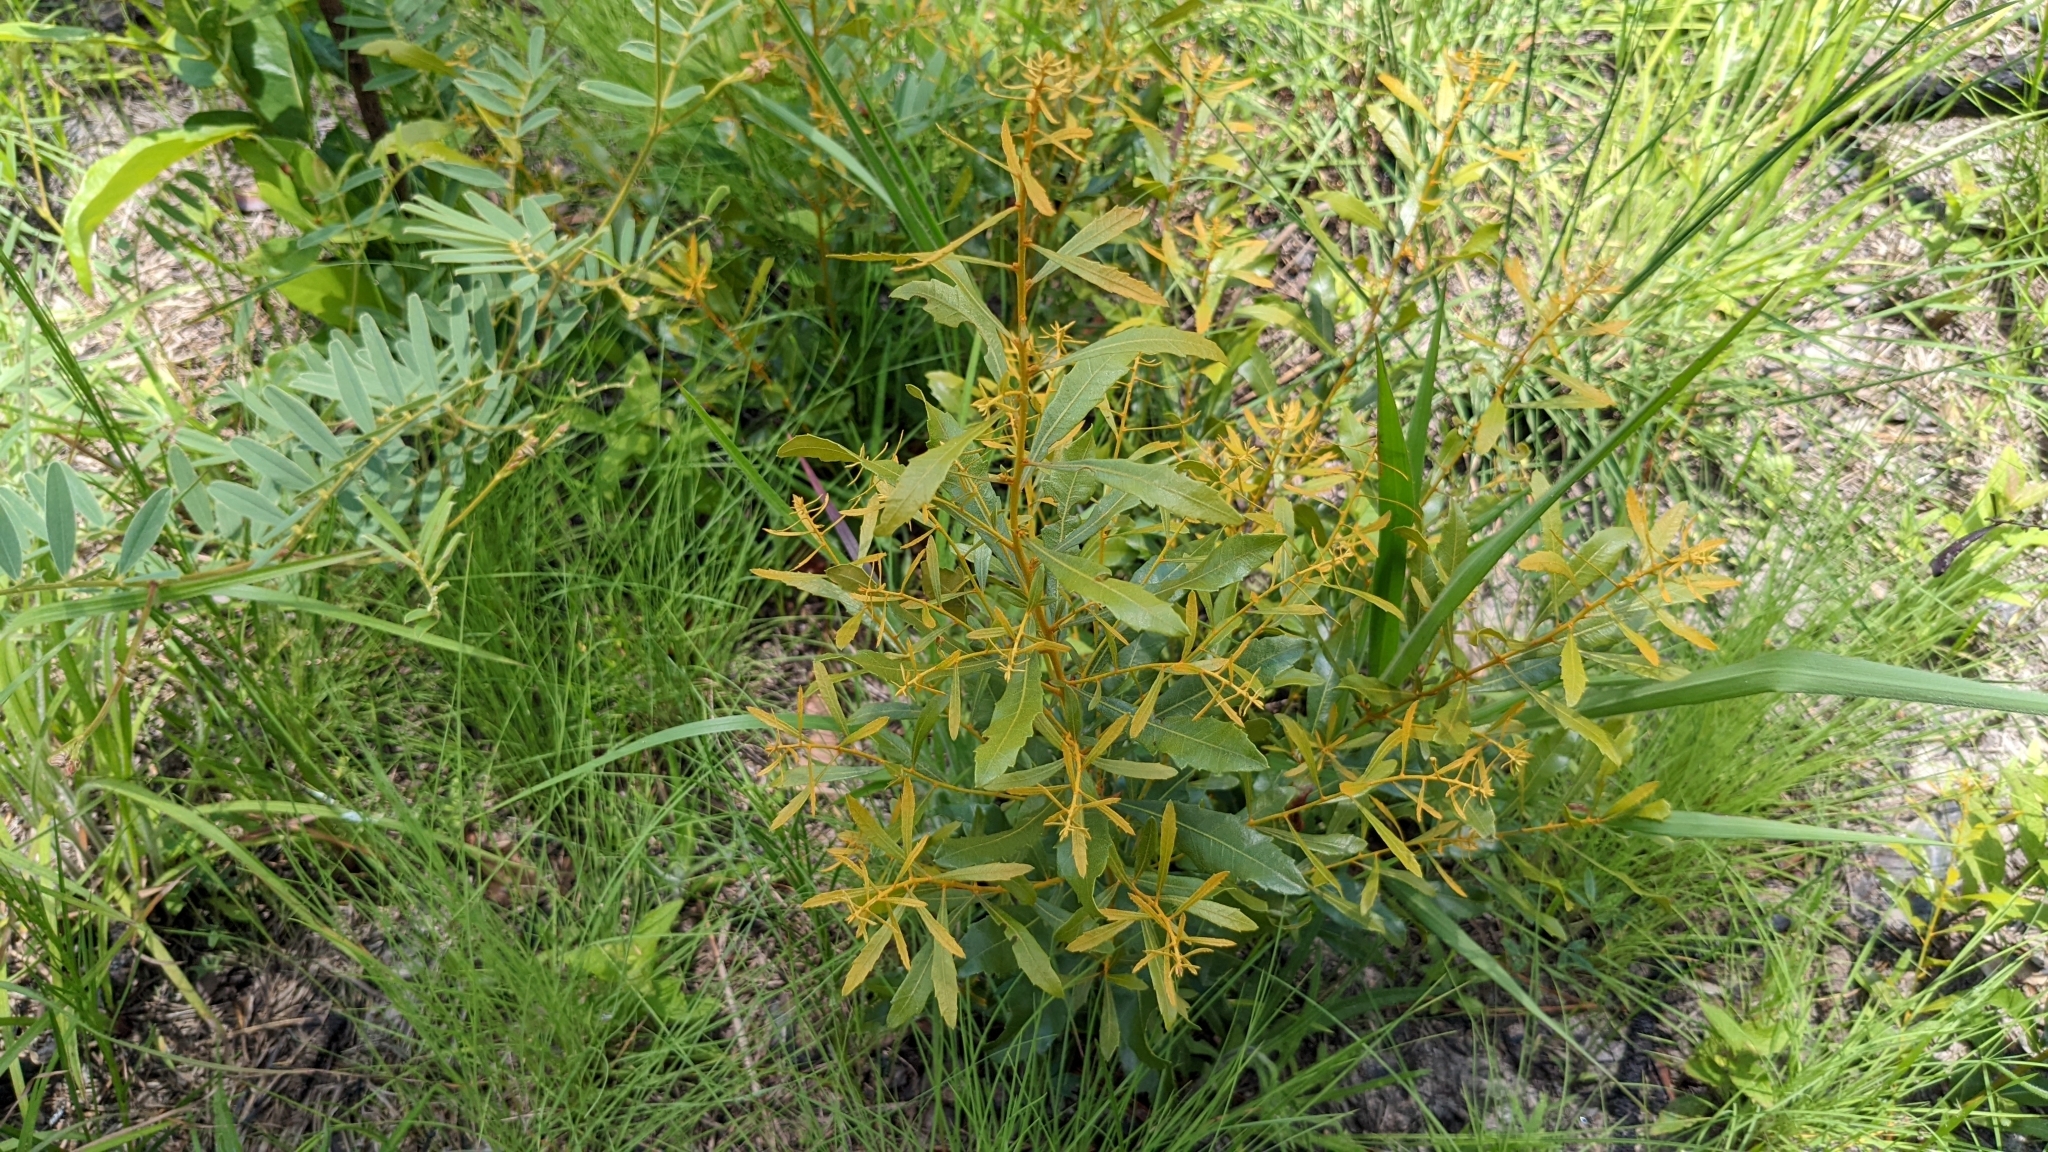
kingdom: Plantae
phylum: Tracheophyta
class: Magnoliopsida
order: Fagales
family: Myricaceae
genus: Morella
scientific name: Morella cerifera
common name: Wax myrtle
